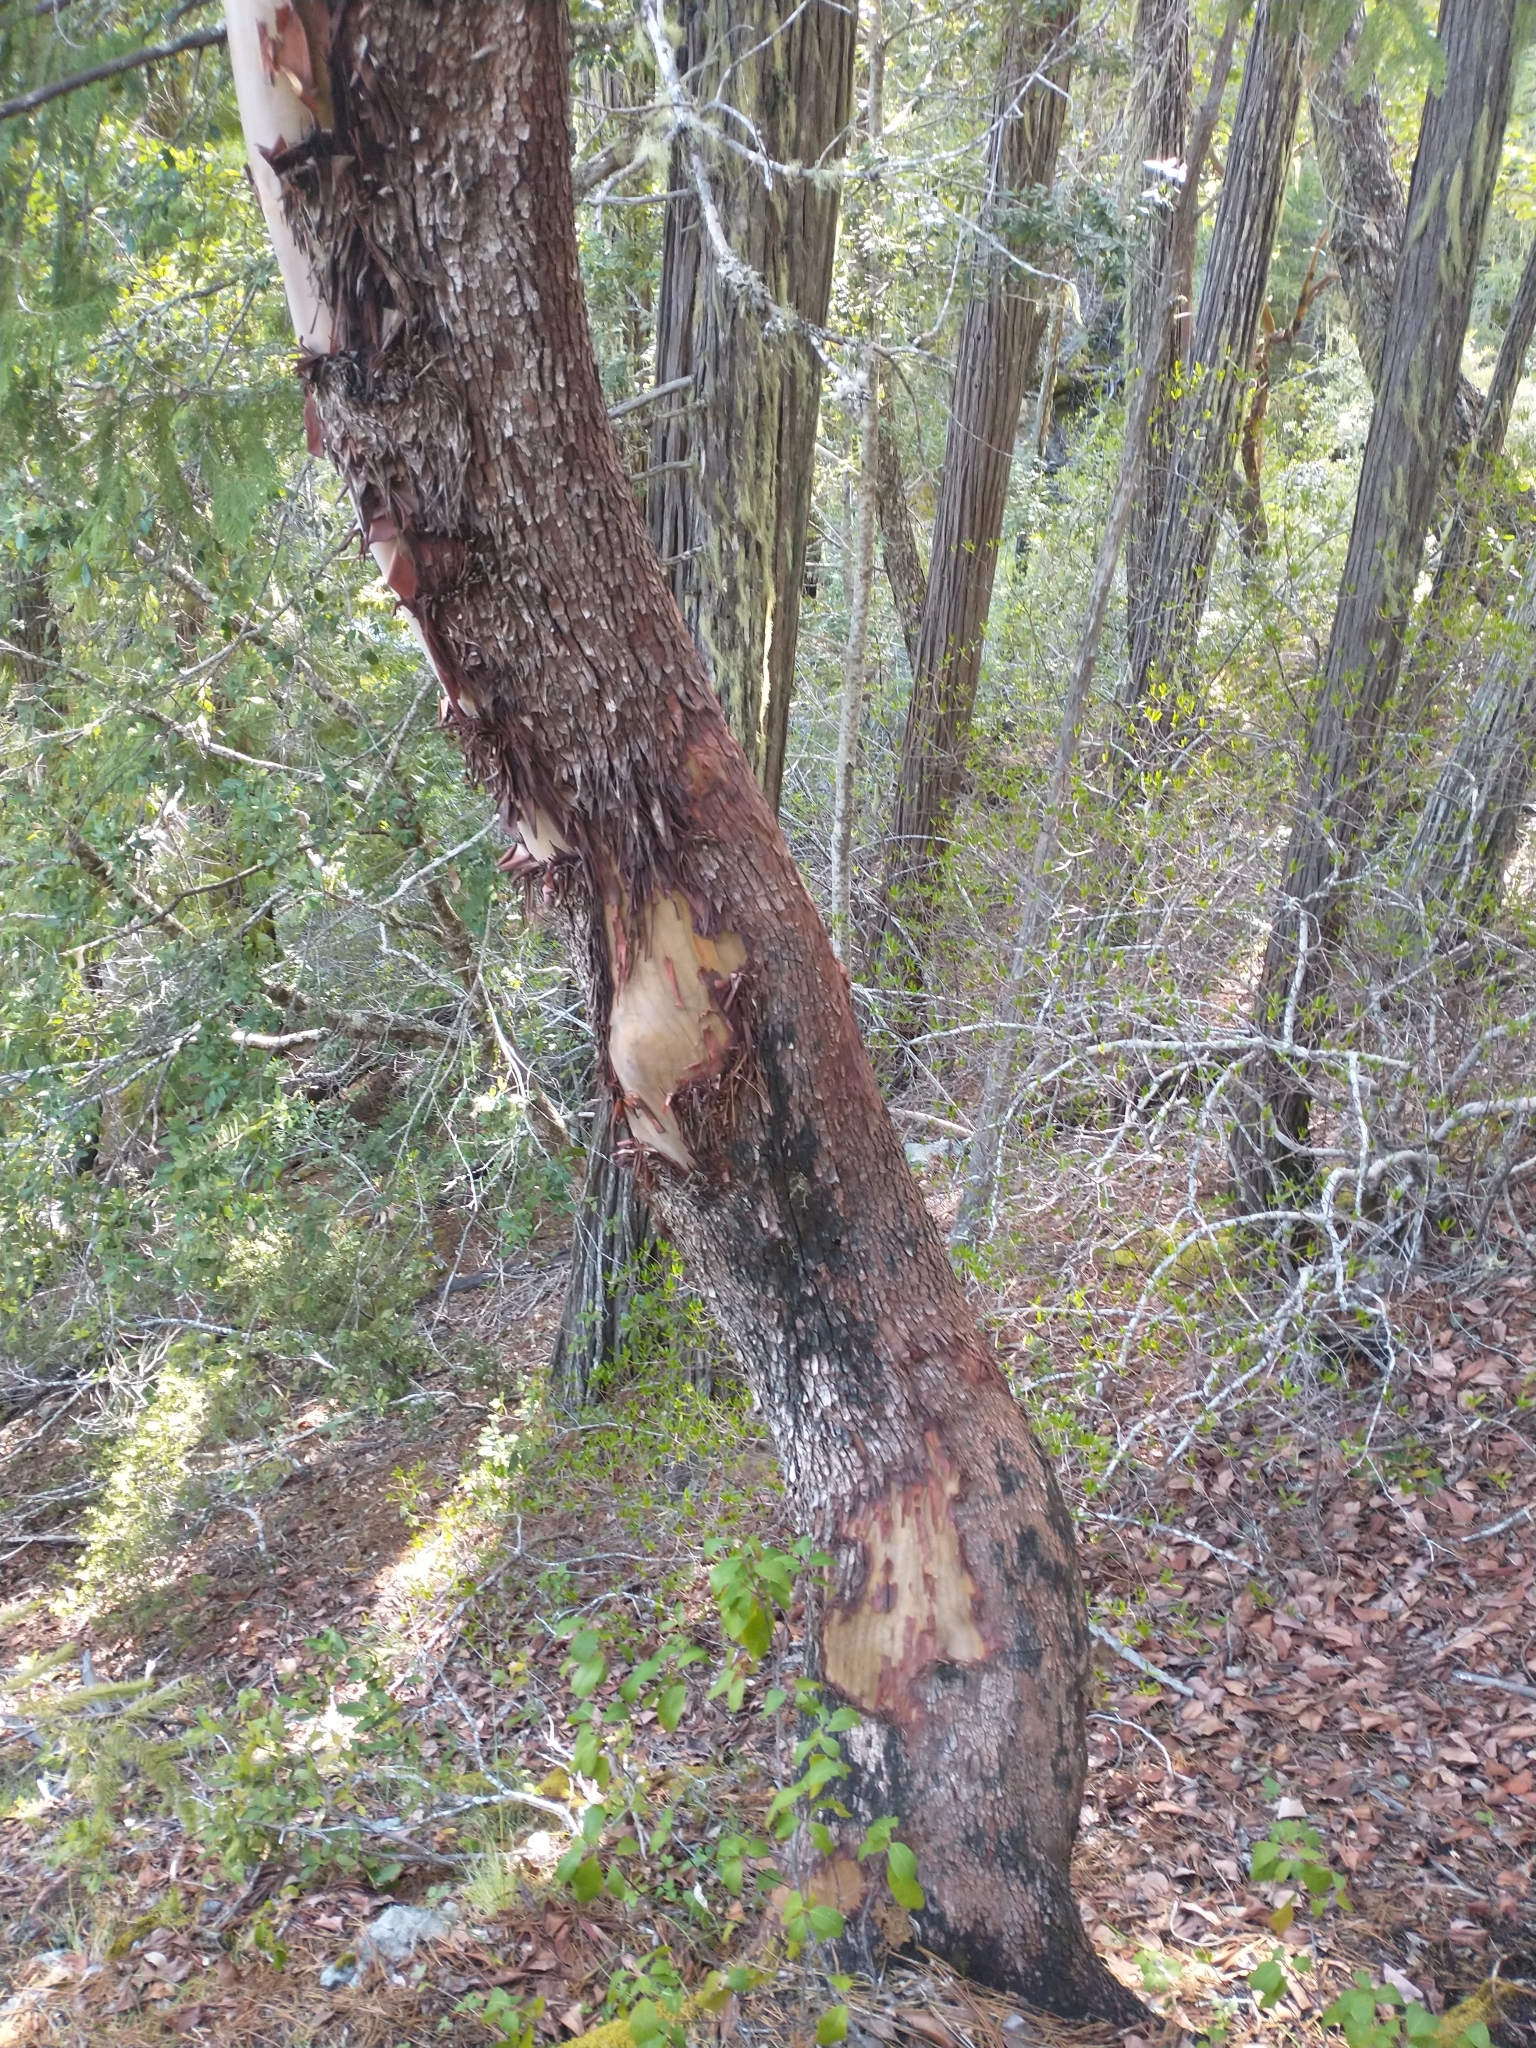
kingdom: Plantae
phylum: Tracheophyta
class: Magnoliopsida
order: Ericales
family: Ericaceae
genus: Arbutus
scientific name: Arbutus menziesii
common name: Pacific madrone
